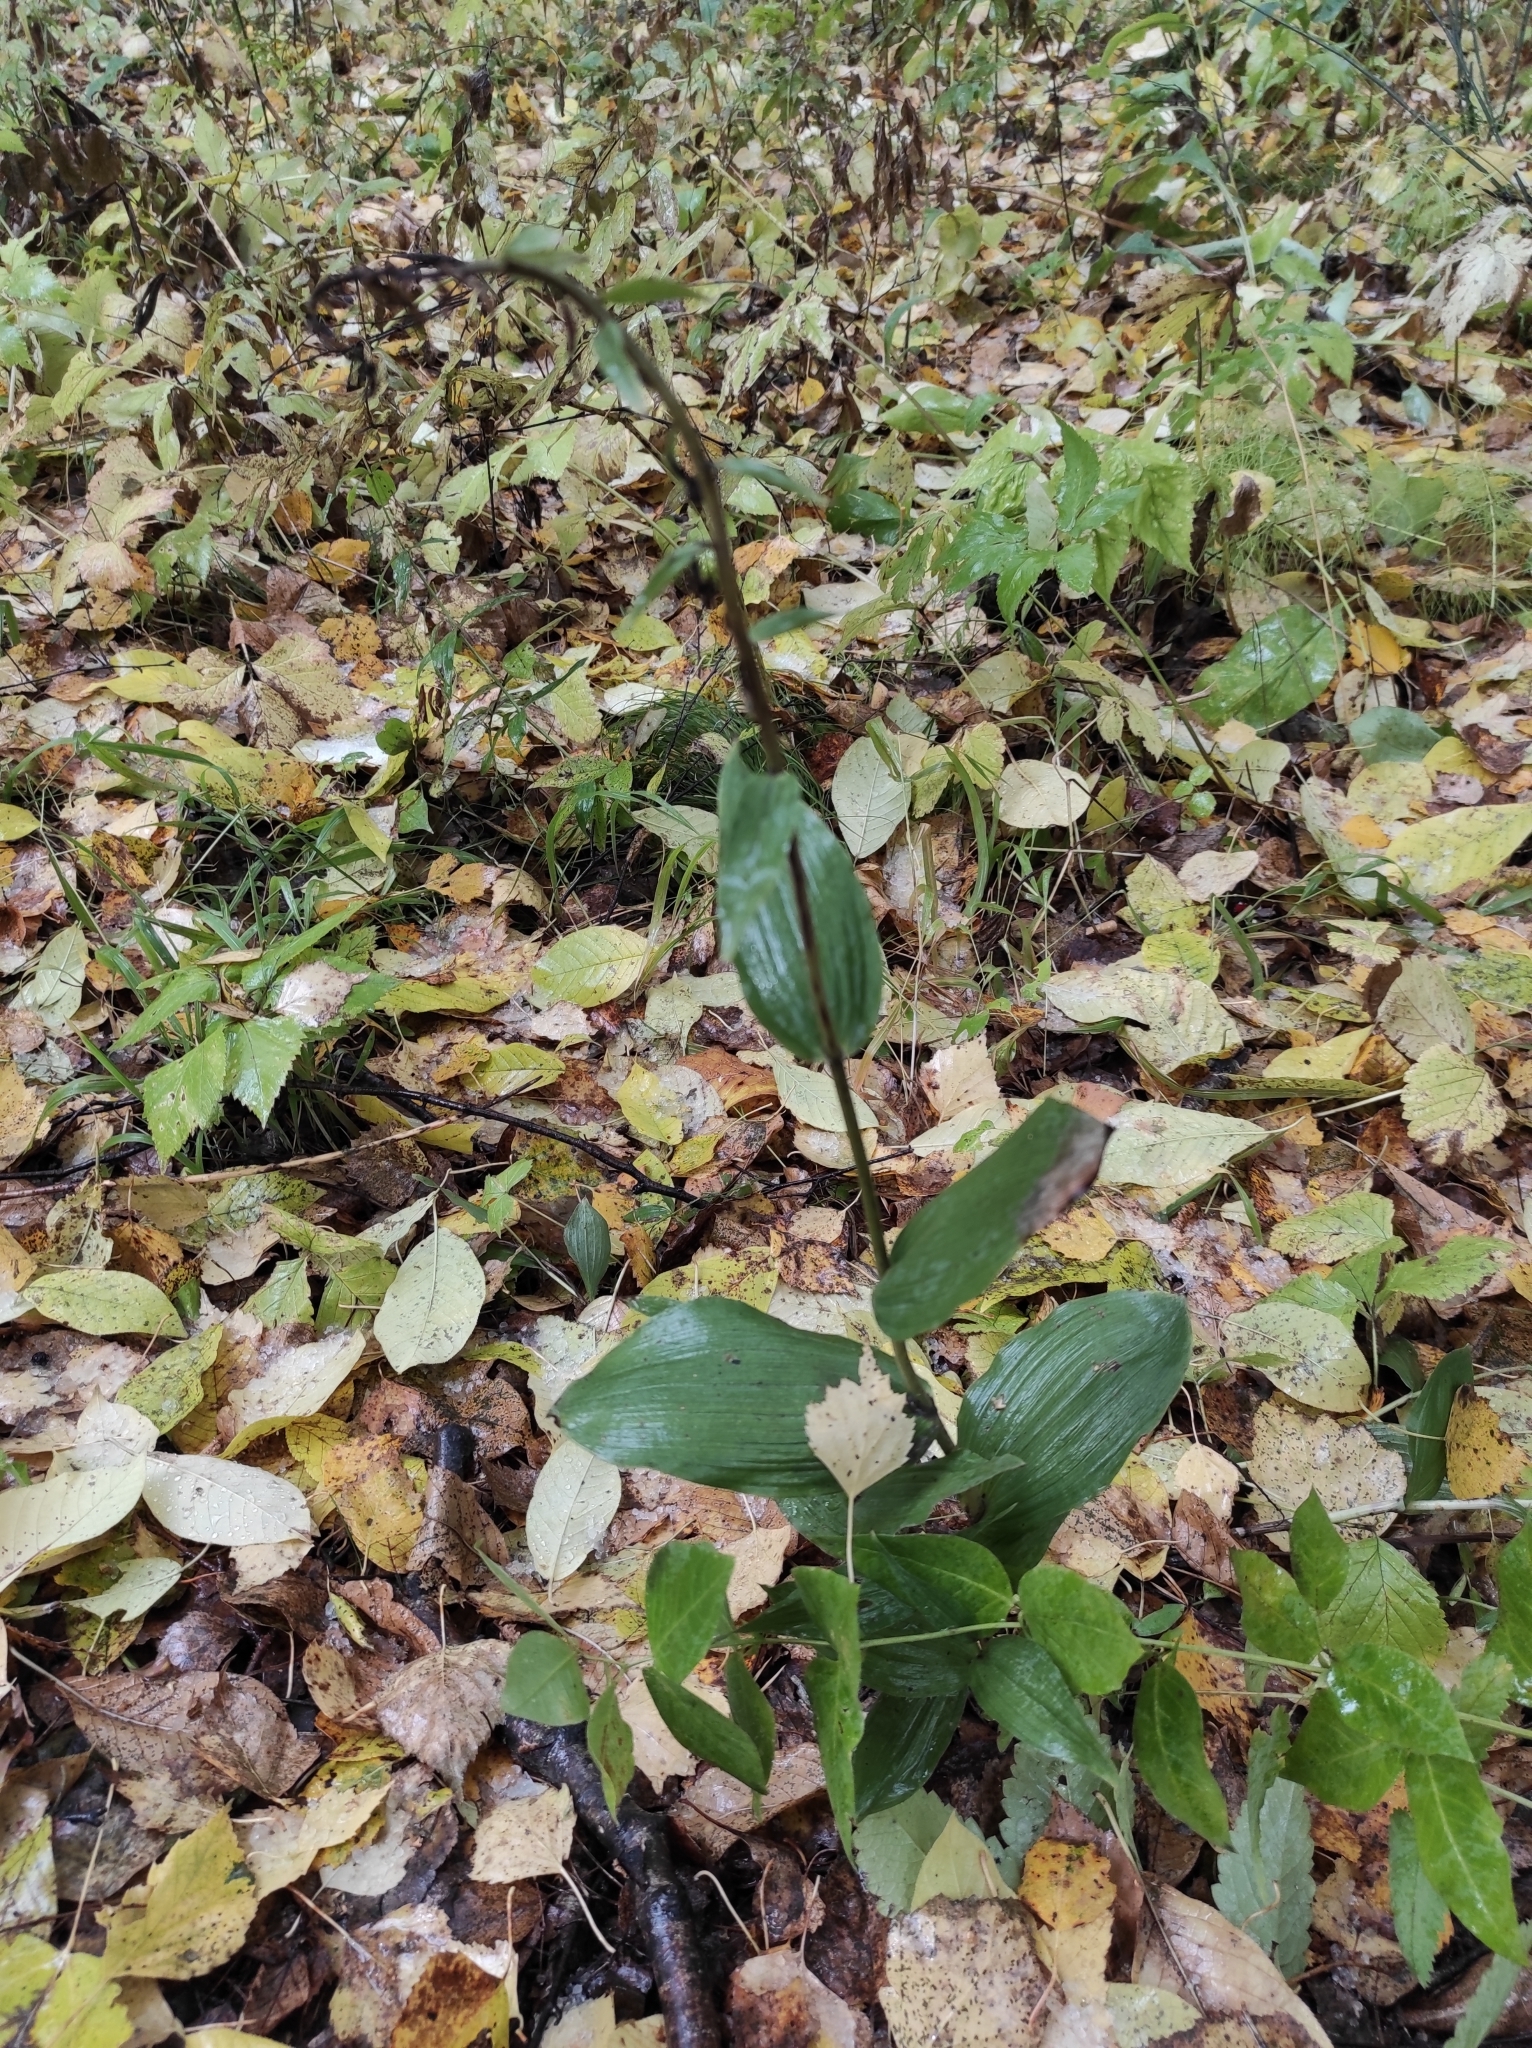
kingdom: Plantae
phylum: Tracheophyta
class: Liliopsida
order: Asparagales
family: Orchidaceae
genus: Epipactis
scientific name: Epipactis helleborine
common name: Broad-leaved helleborine
